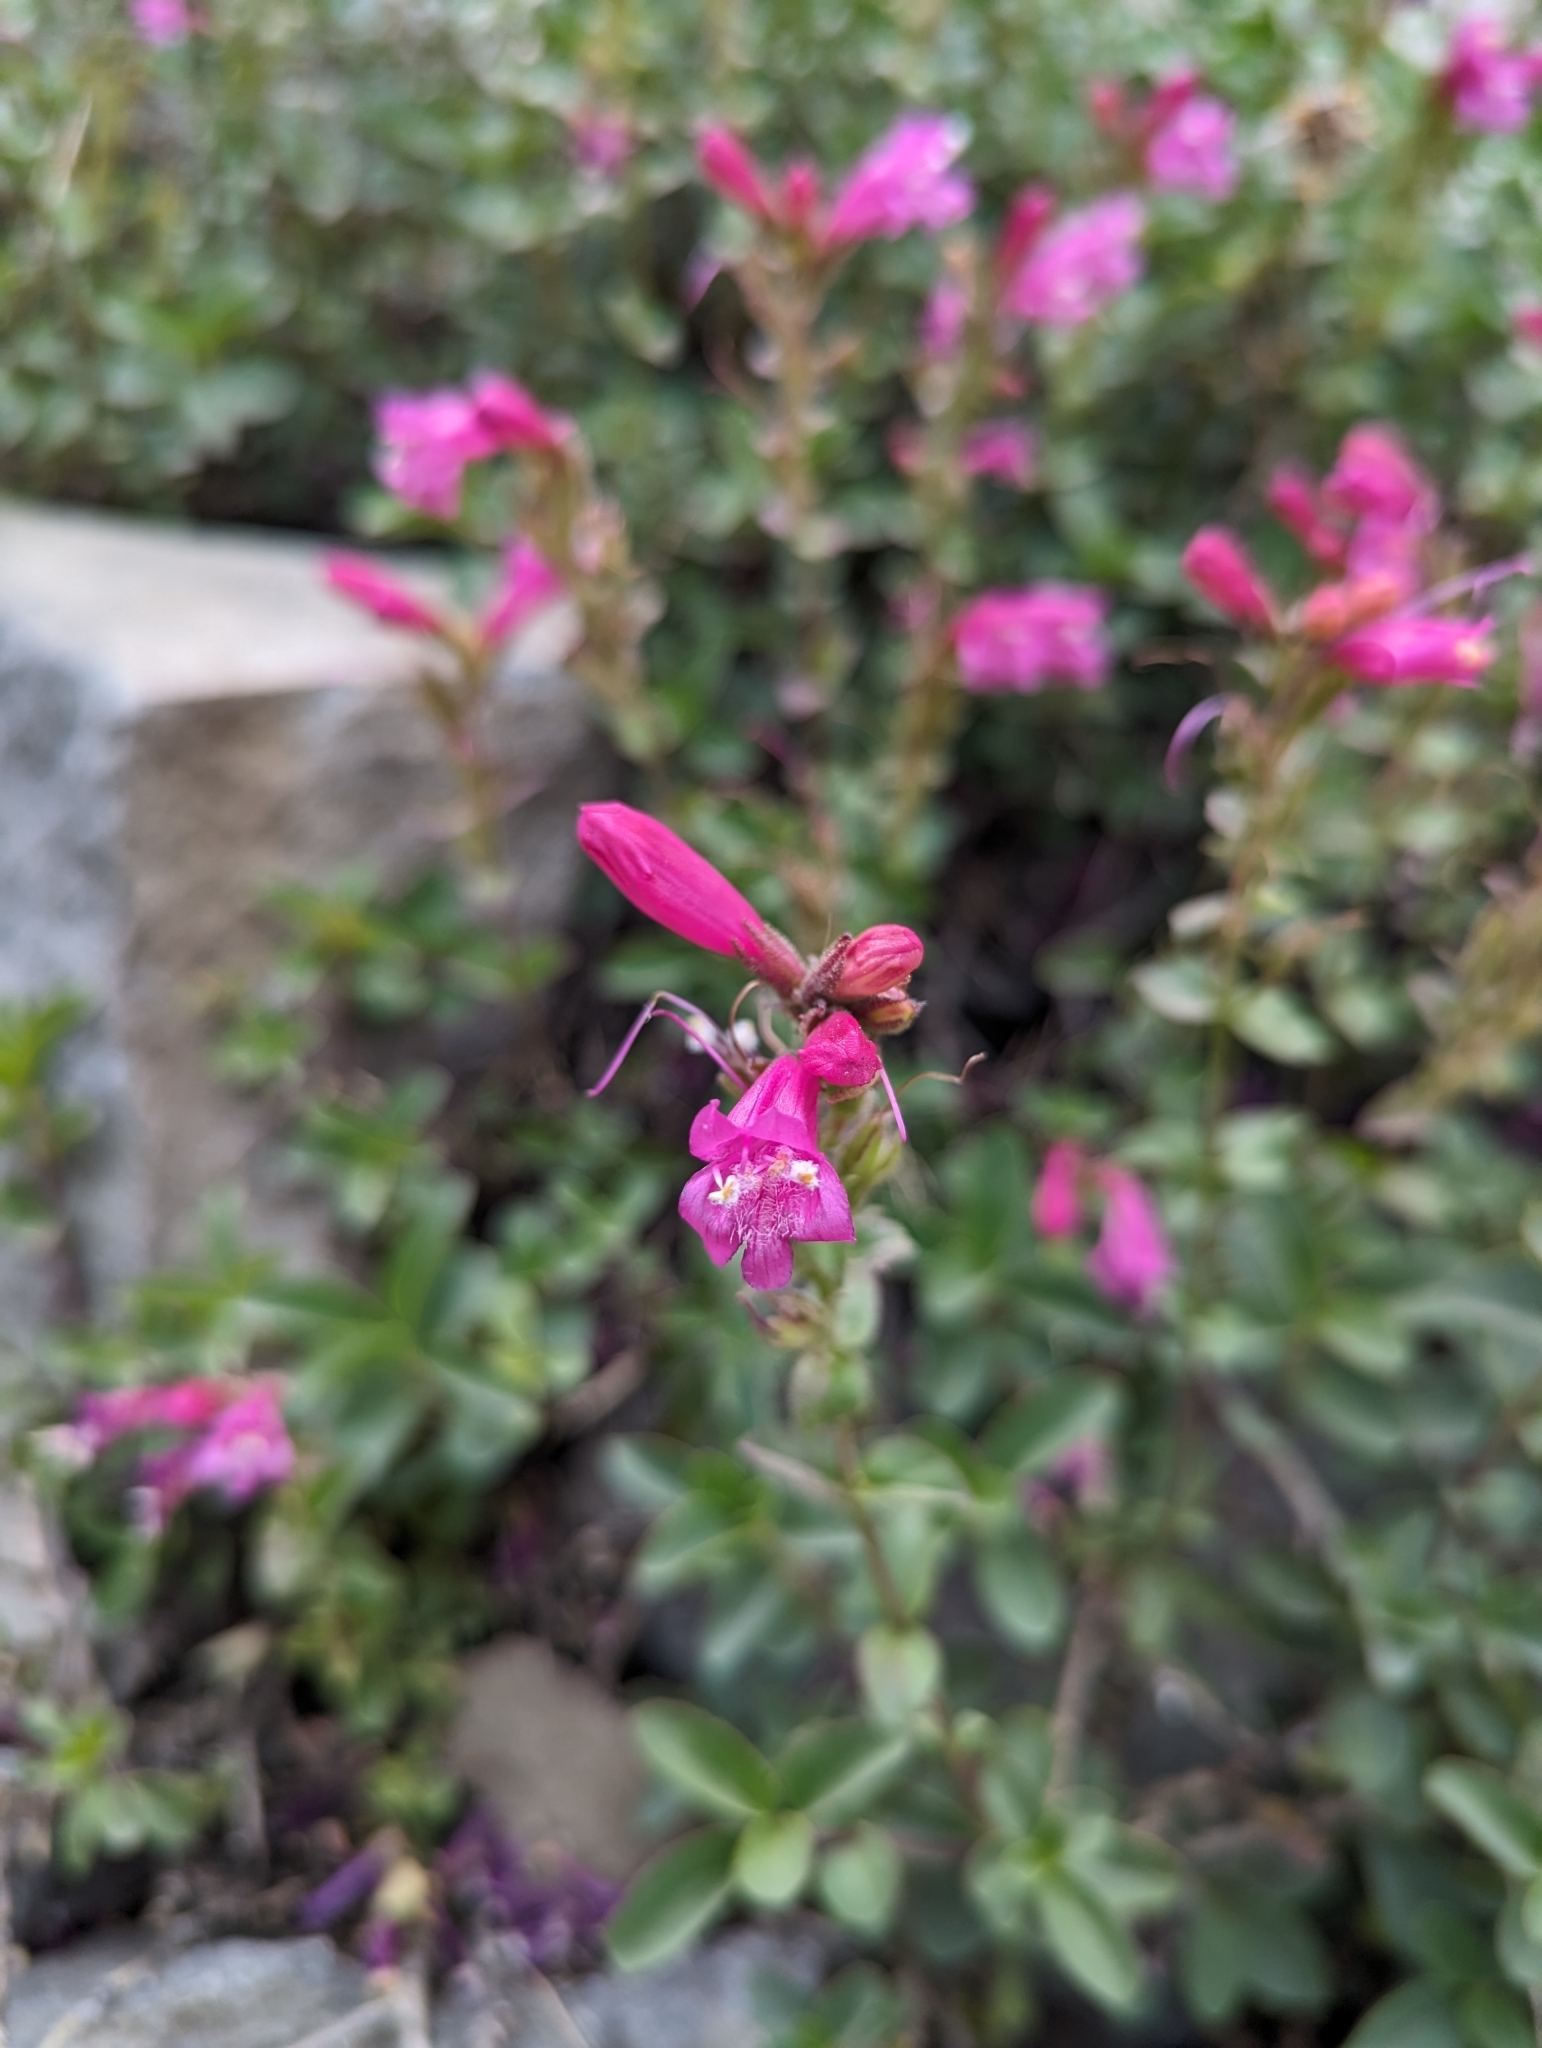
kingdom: Plantae
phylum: Tracheophyta
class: Magnoliopsida
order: Lamiales
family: Plantaginaceae
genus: Penstemon
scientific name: Penstemon newberryi
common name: Mountain-pride
